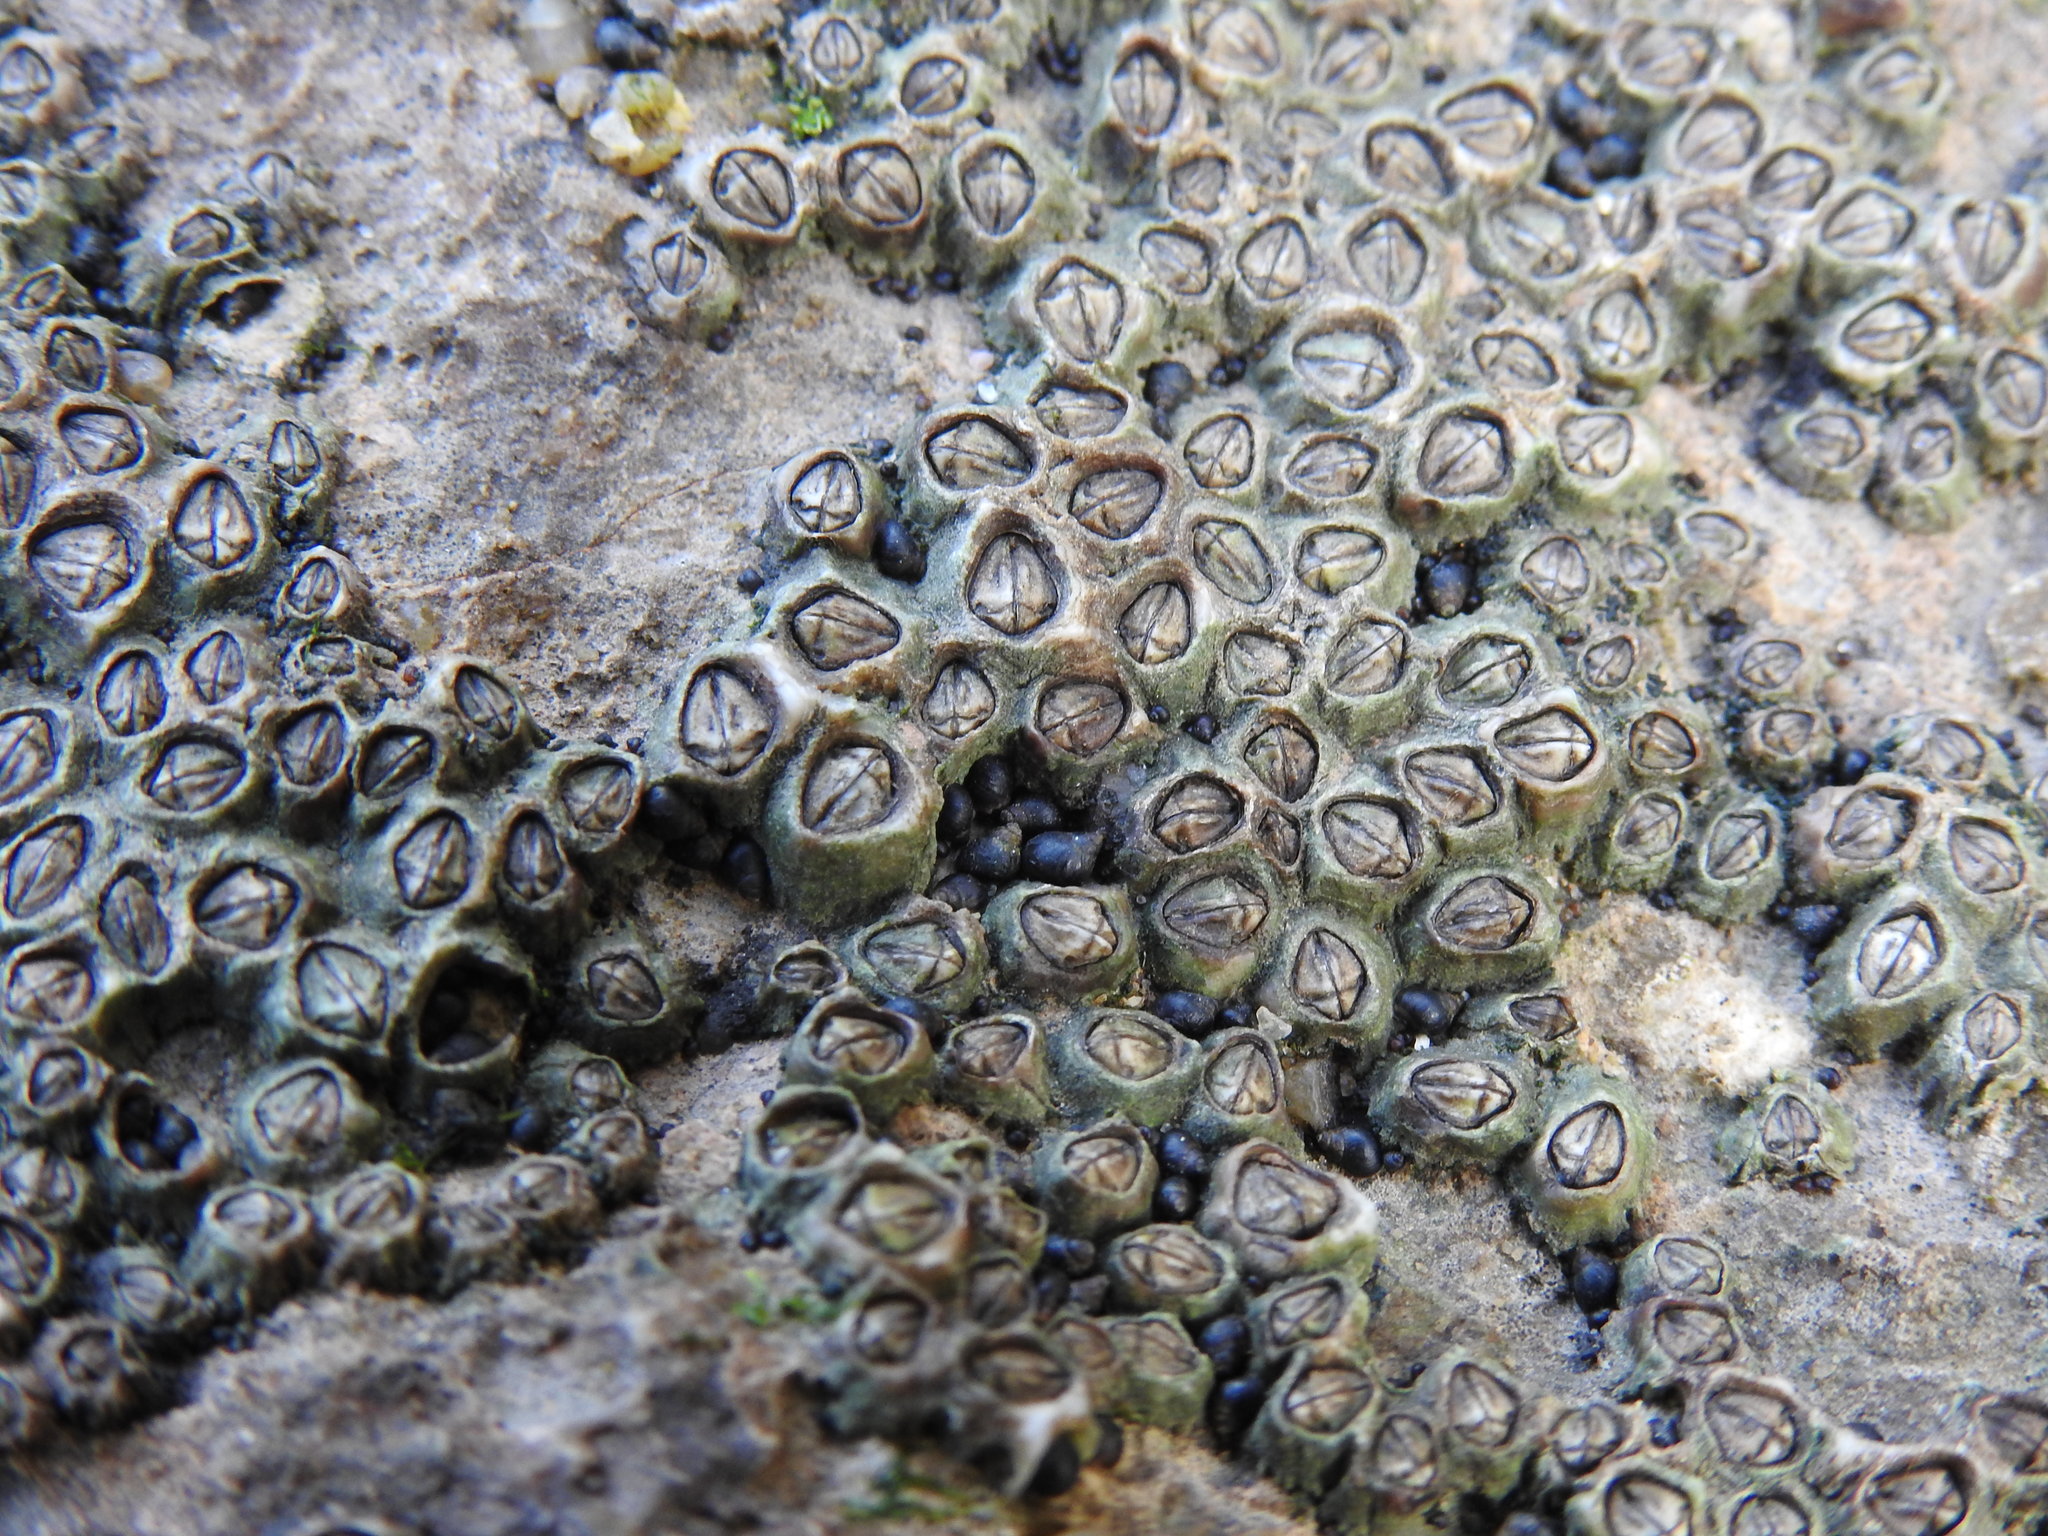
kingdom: Animalia
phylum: Mollusca
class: Gastropoda
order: Littorinimorpha
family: Littorinidae
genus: Melarhaphe
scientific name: Melarhaphe neritoides
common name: Small periwinkle
